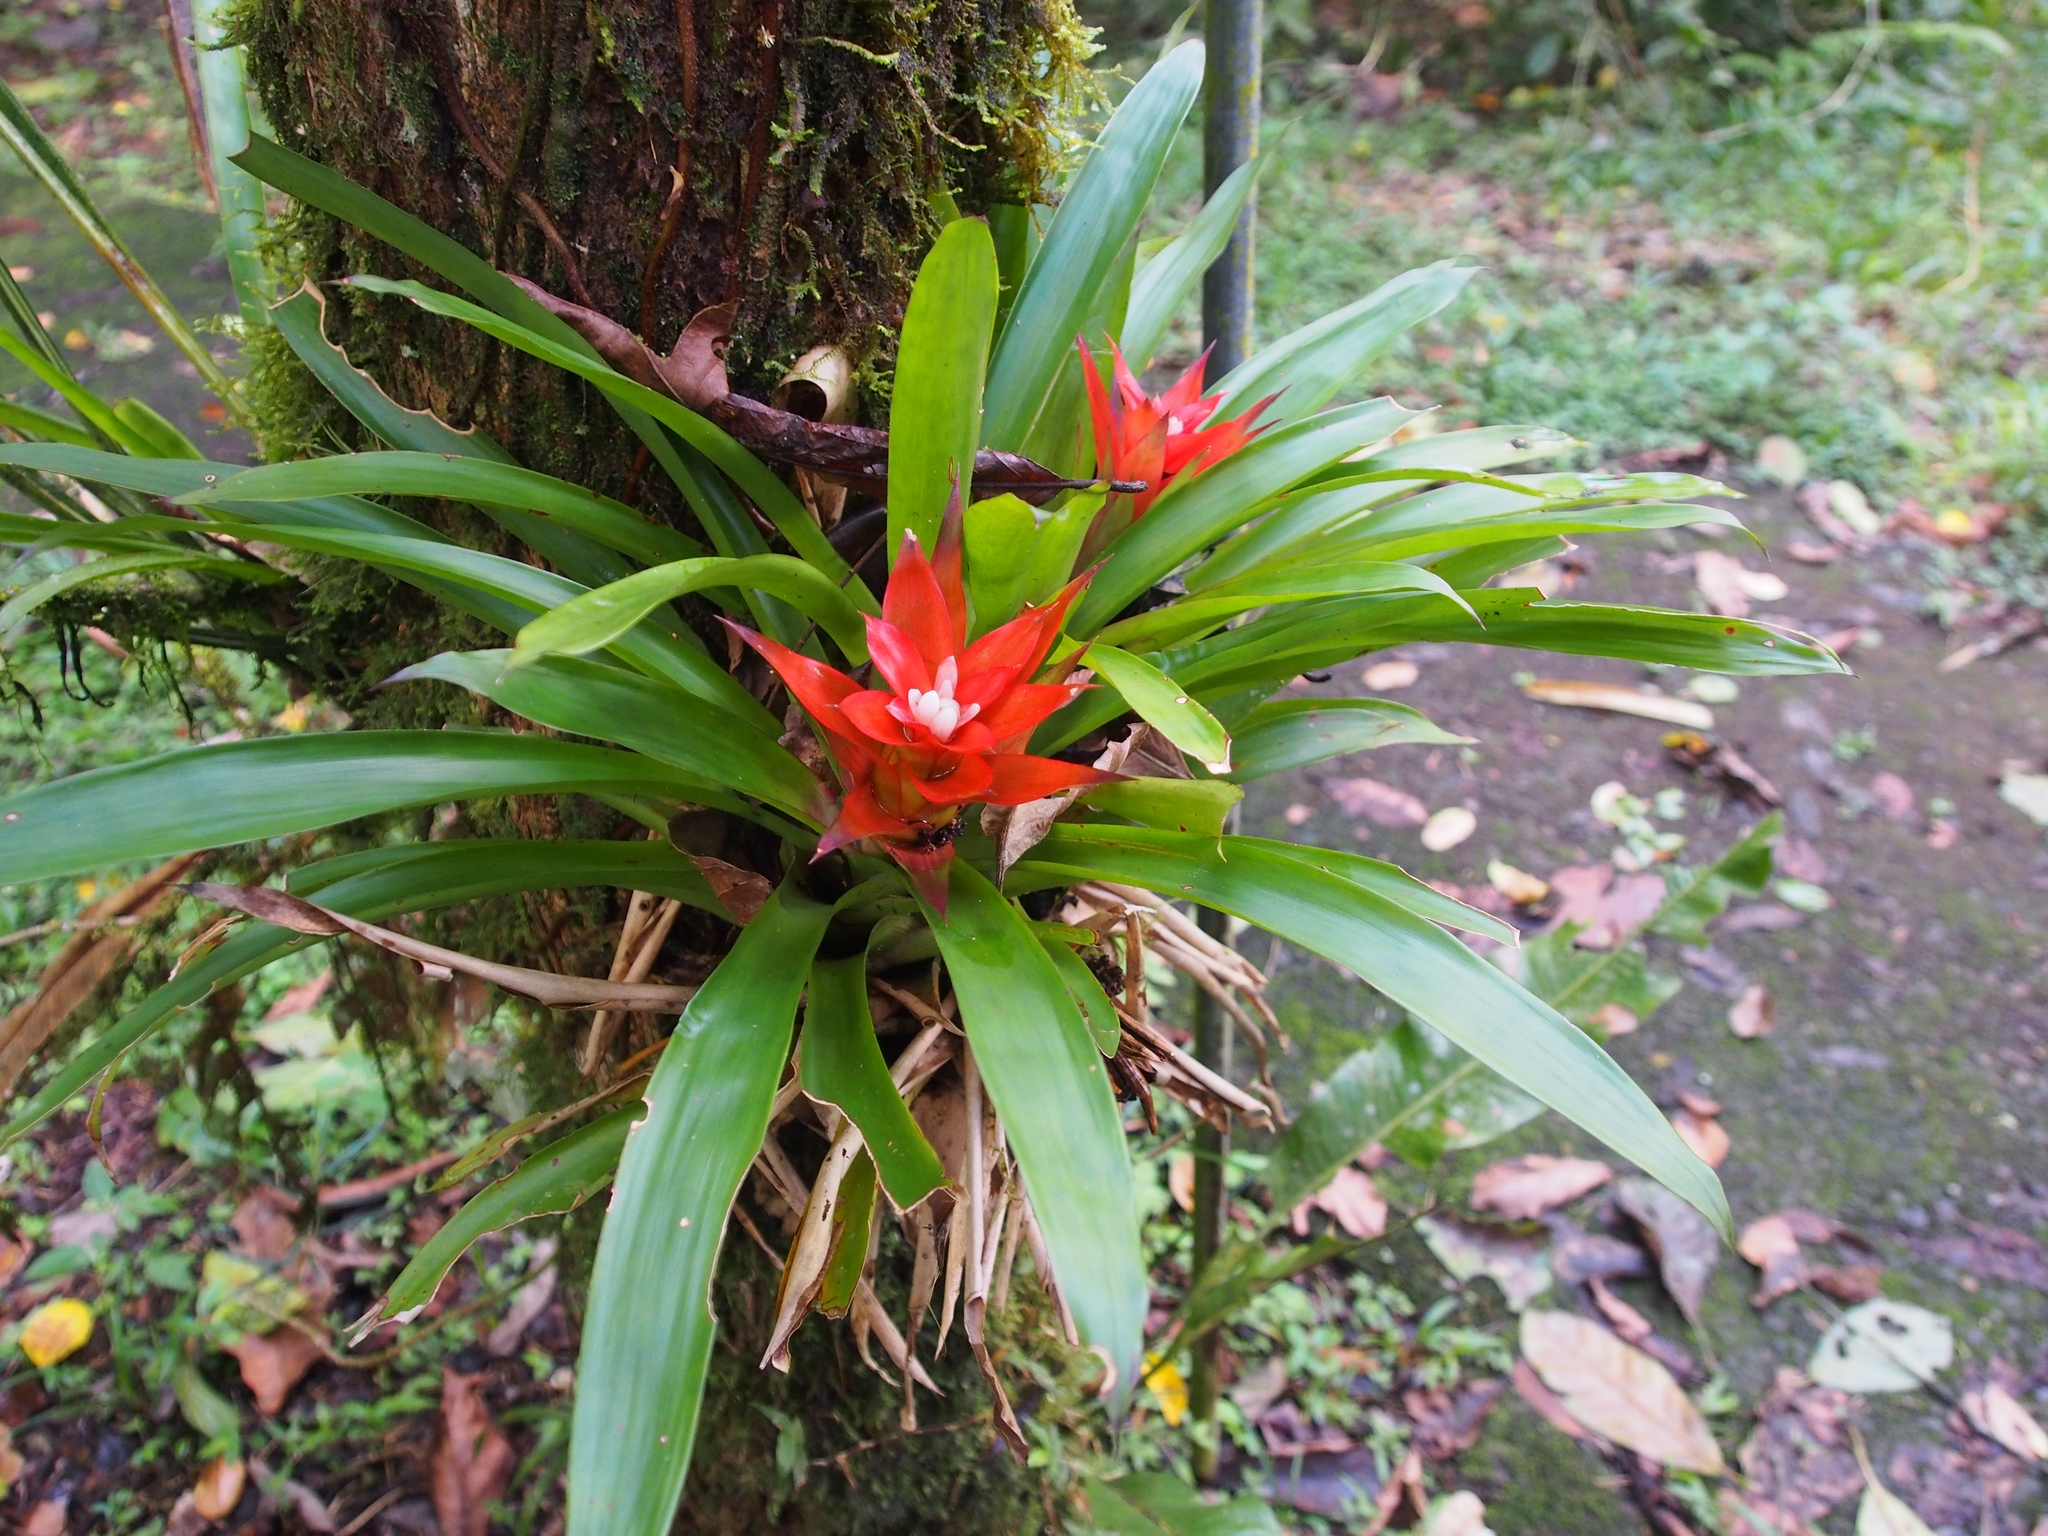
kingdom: Plantae
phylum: Tracheophyta
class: Liliopsida
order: Poales
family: Bromeliaceae
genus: Guzmania
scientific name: Guzmania lingulata
